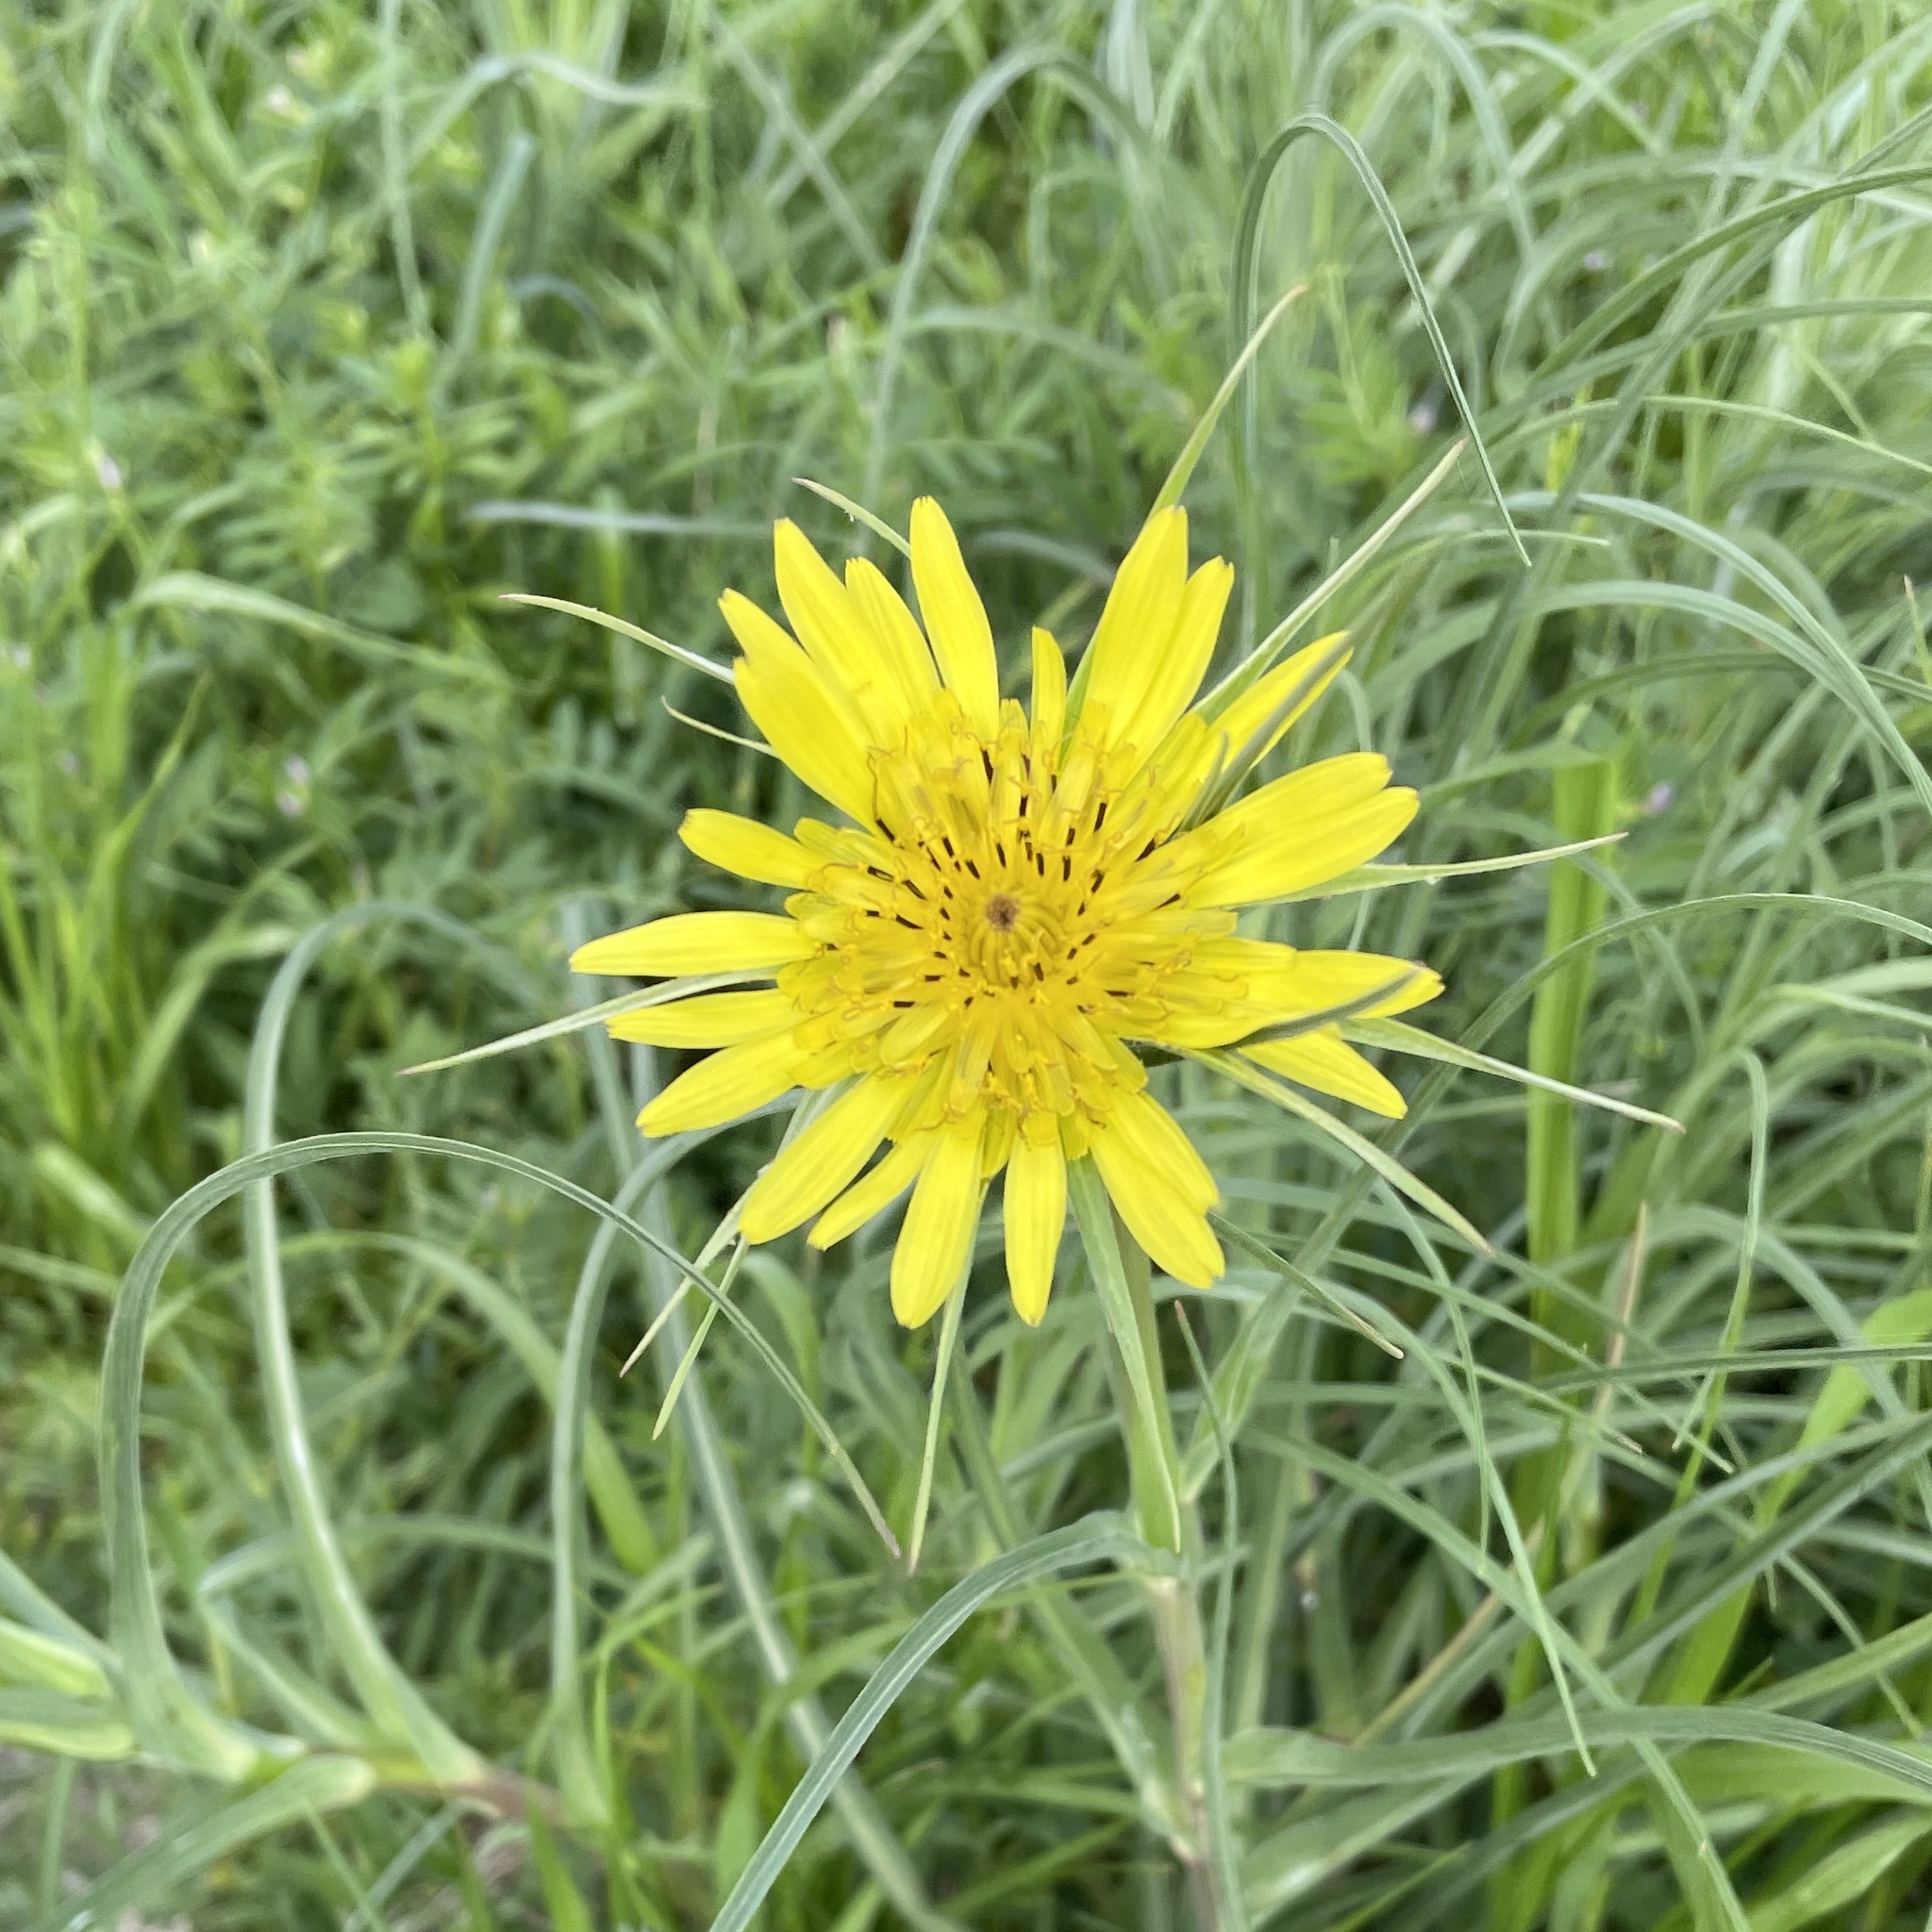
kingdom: Plantae
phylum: Tracheophyta
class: Magnoliopsida
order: Asterales
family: Asteraceae
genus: Tragopogon
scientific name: Tragopogon dubius
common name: Yellow salsify
